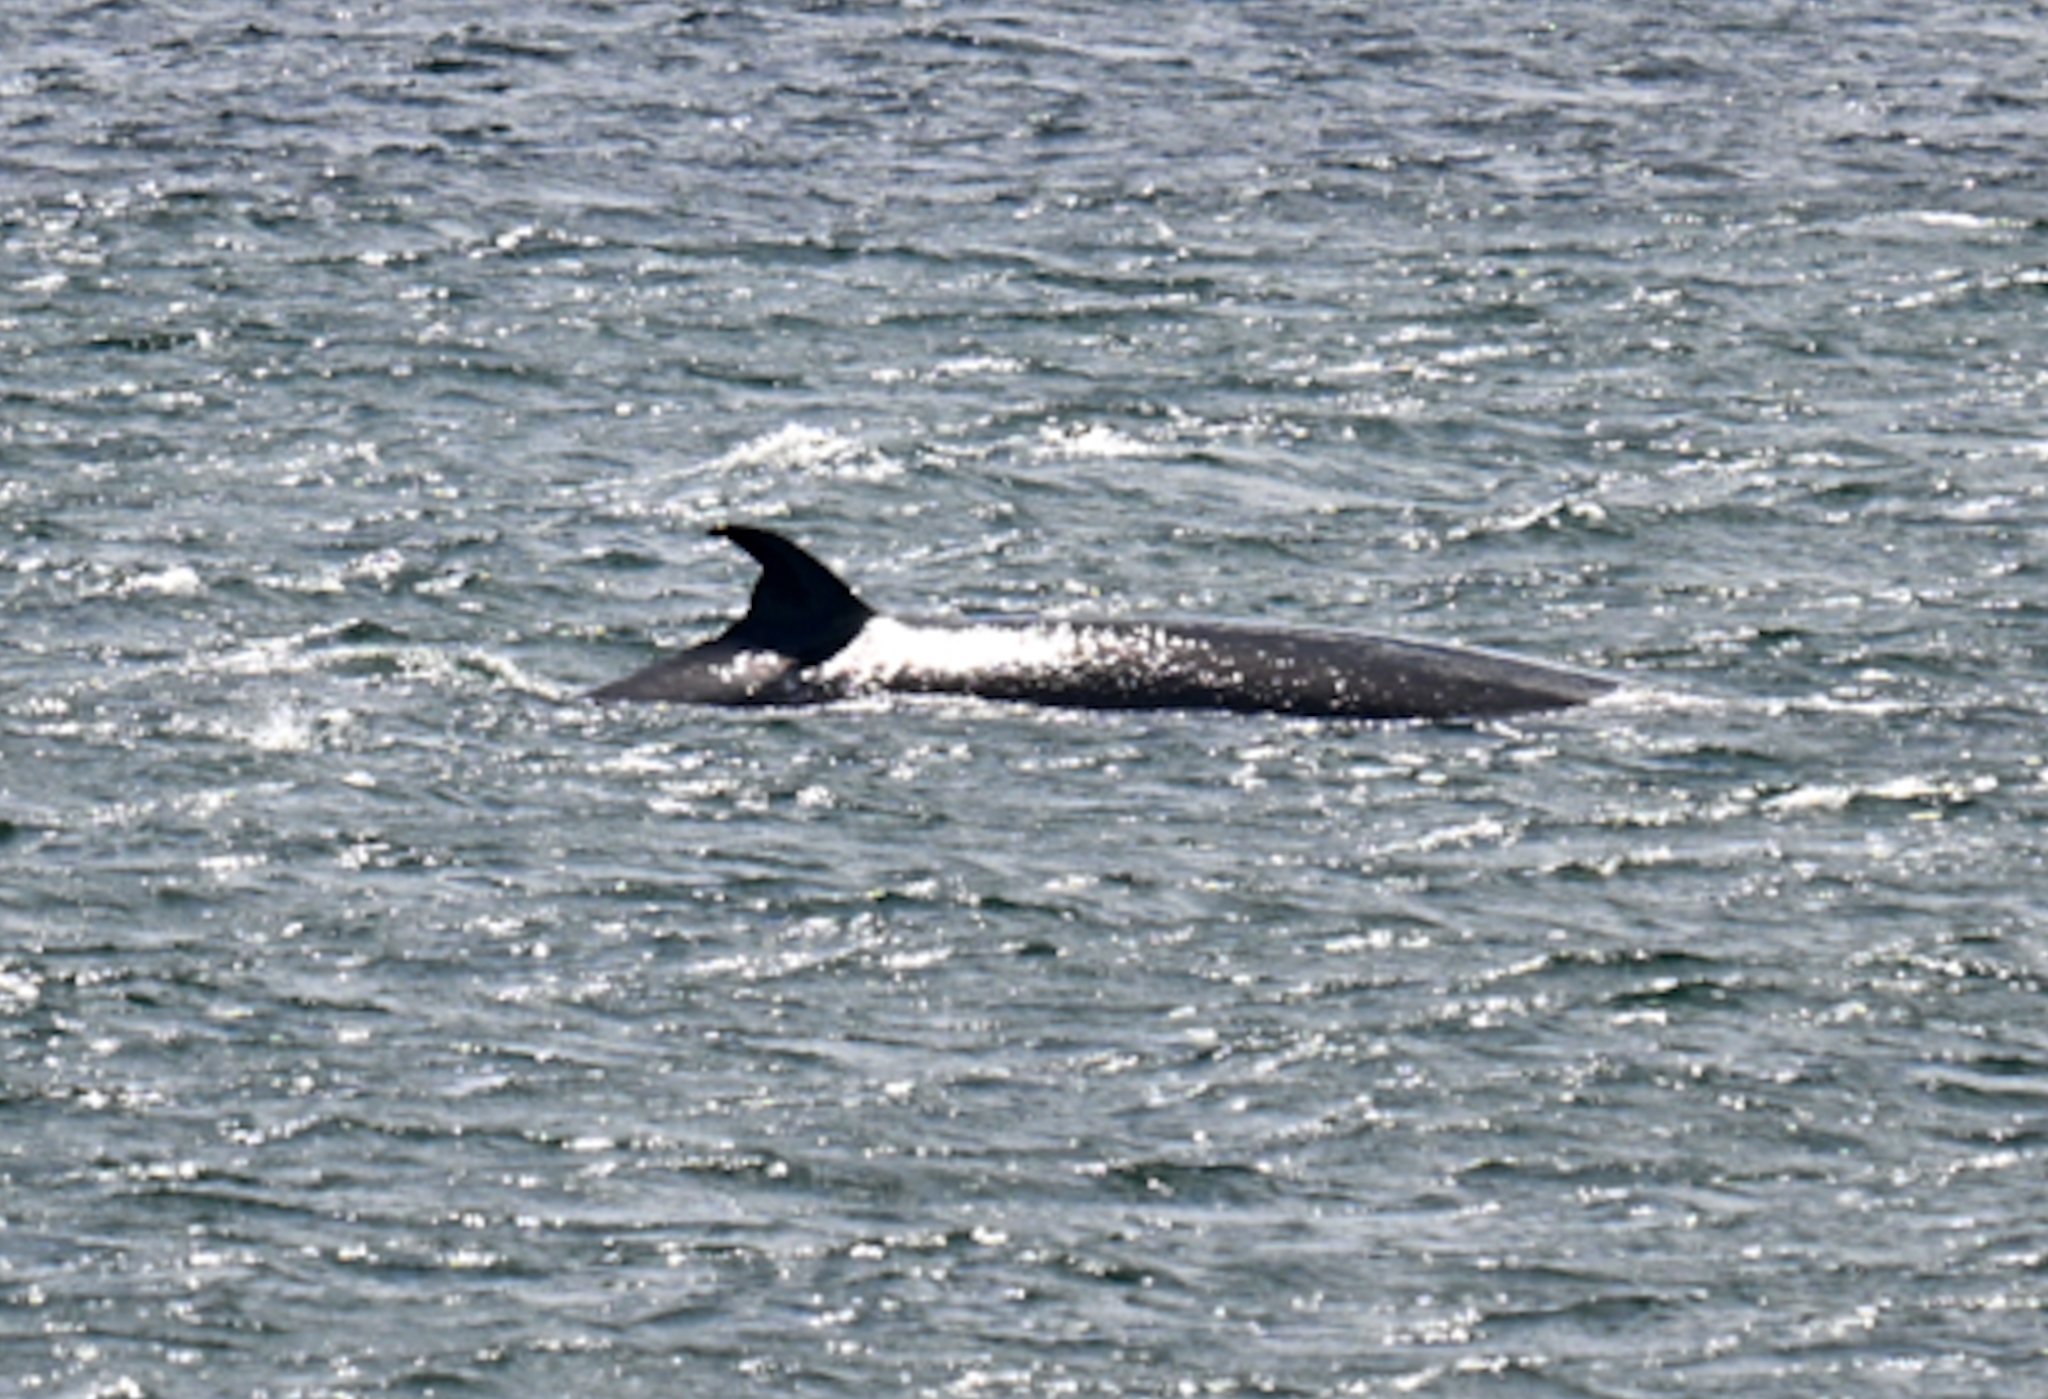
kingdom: Animalia
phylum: Chordata
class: Mammalia
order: Cetacea
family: Balaenopteridae
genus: Balaenoptera
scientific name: Balaenoptera borealis
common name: Sei whale
